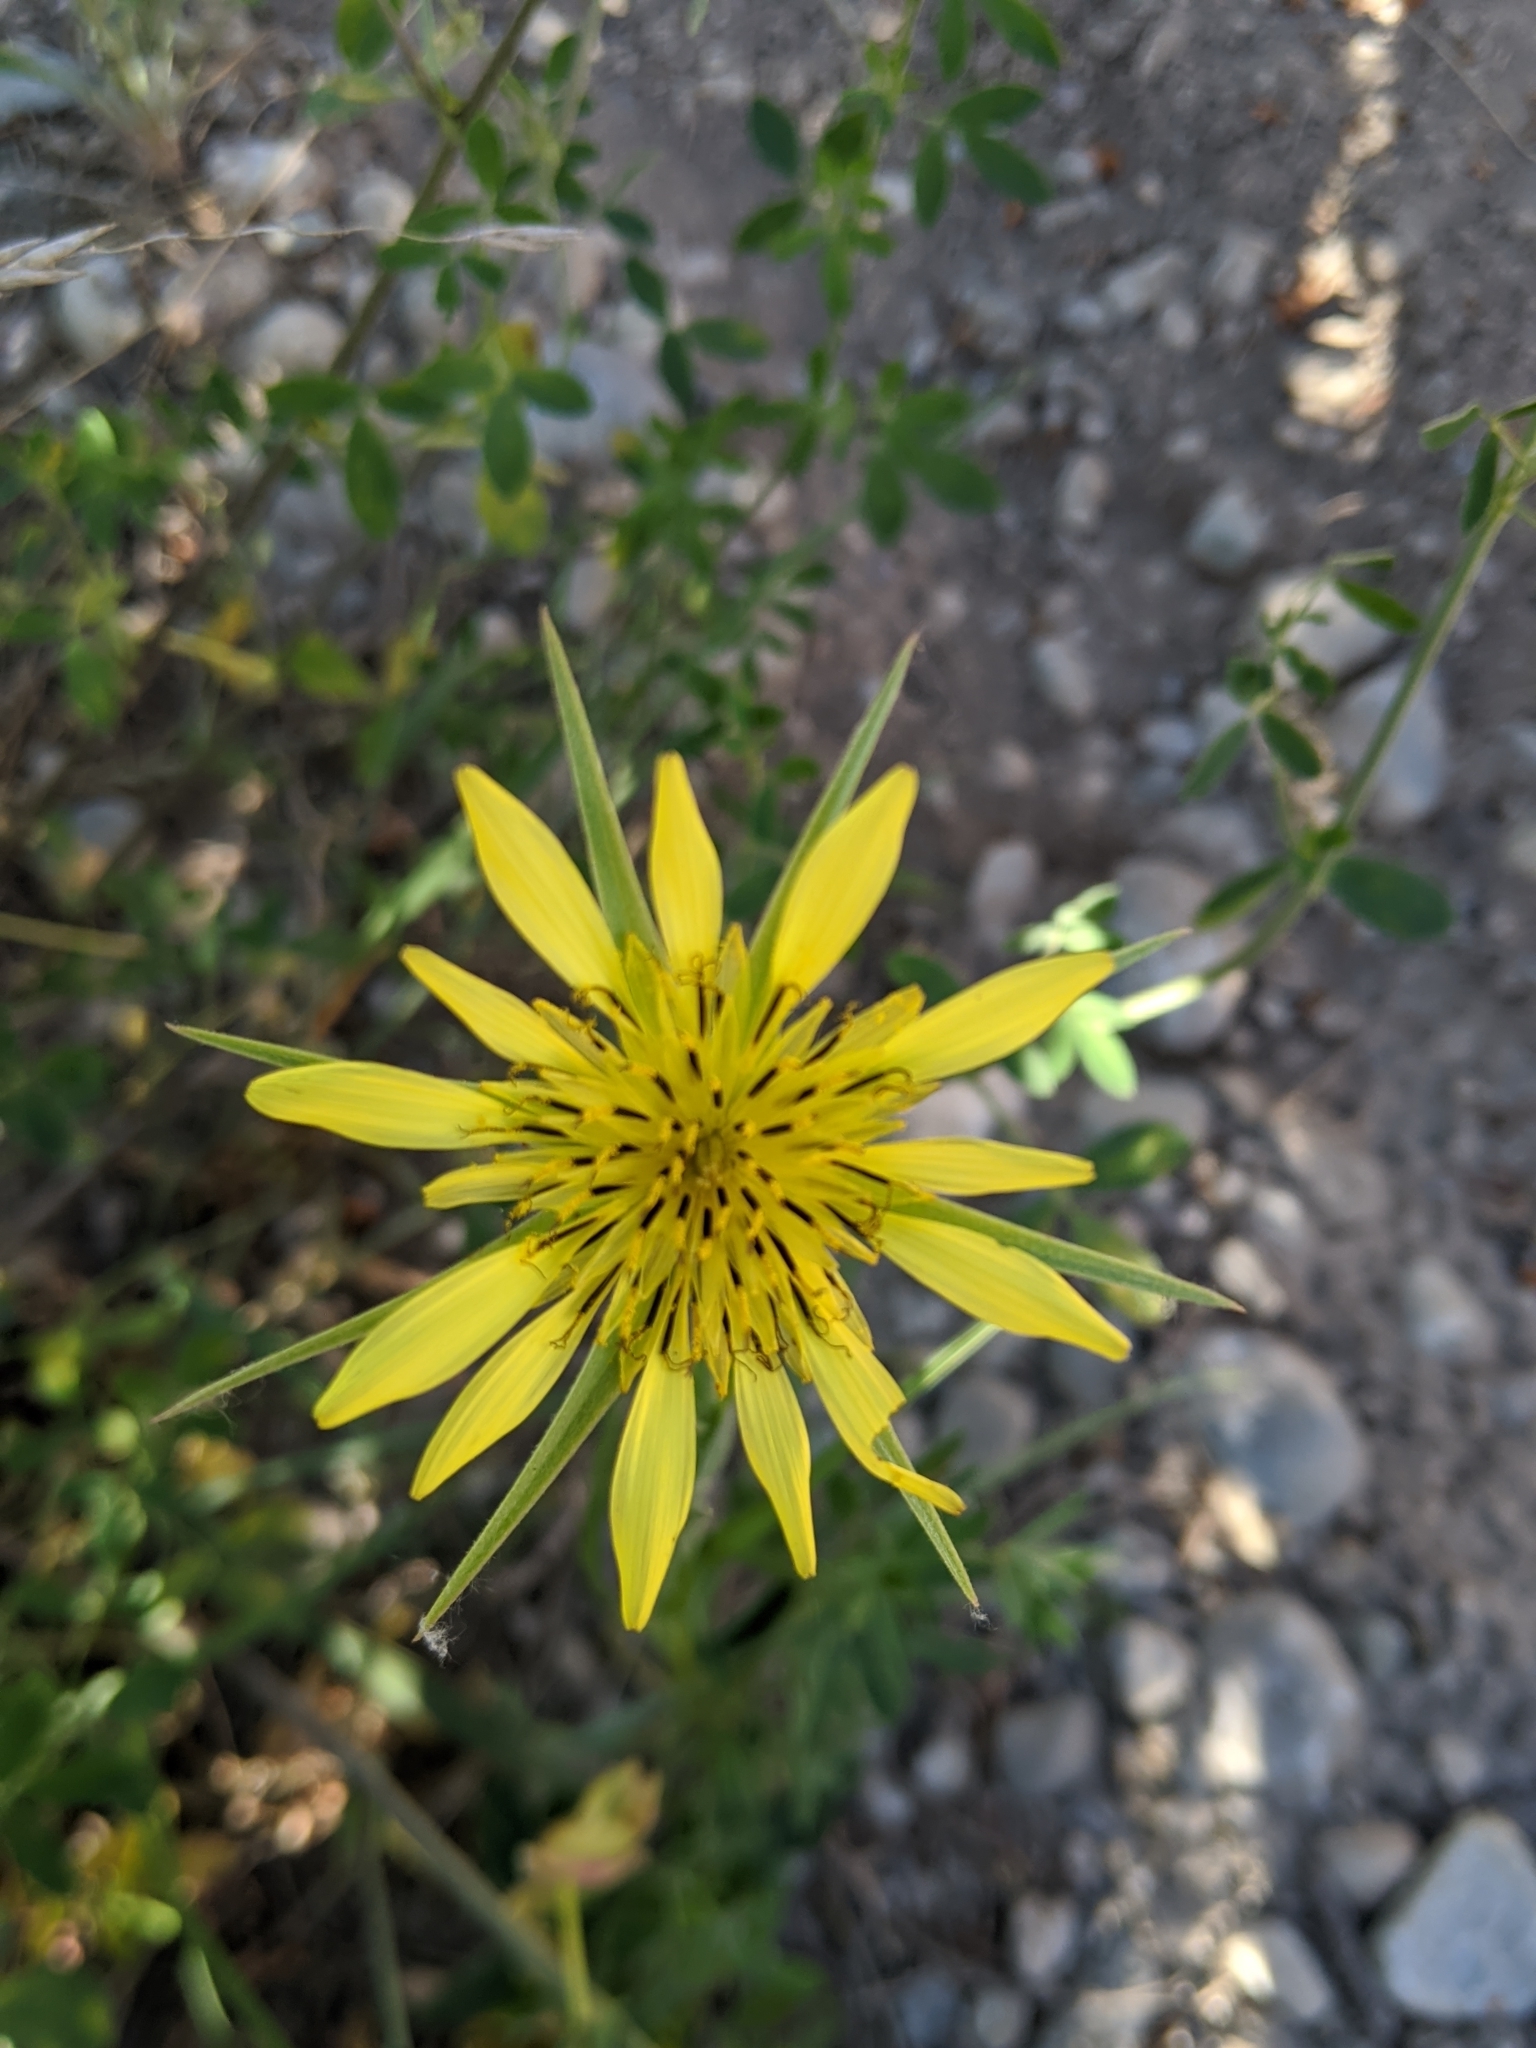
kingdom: Plantae
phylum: Tracheophyta
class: Magnoliopsida
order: Asterales
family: Asteraceae
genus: Tragopogon
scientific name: Tragopogon dubius
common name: Yellow salsify
